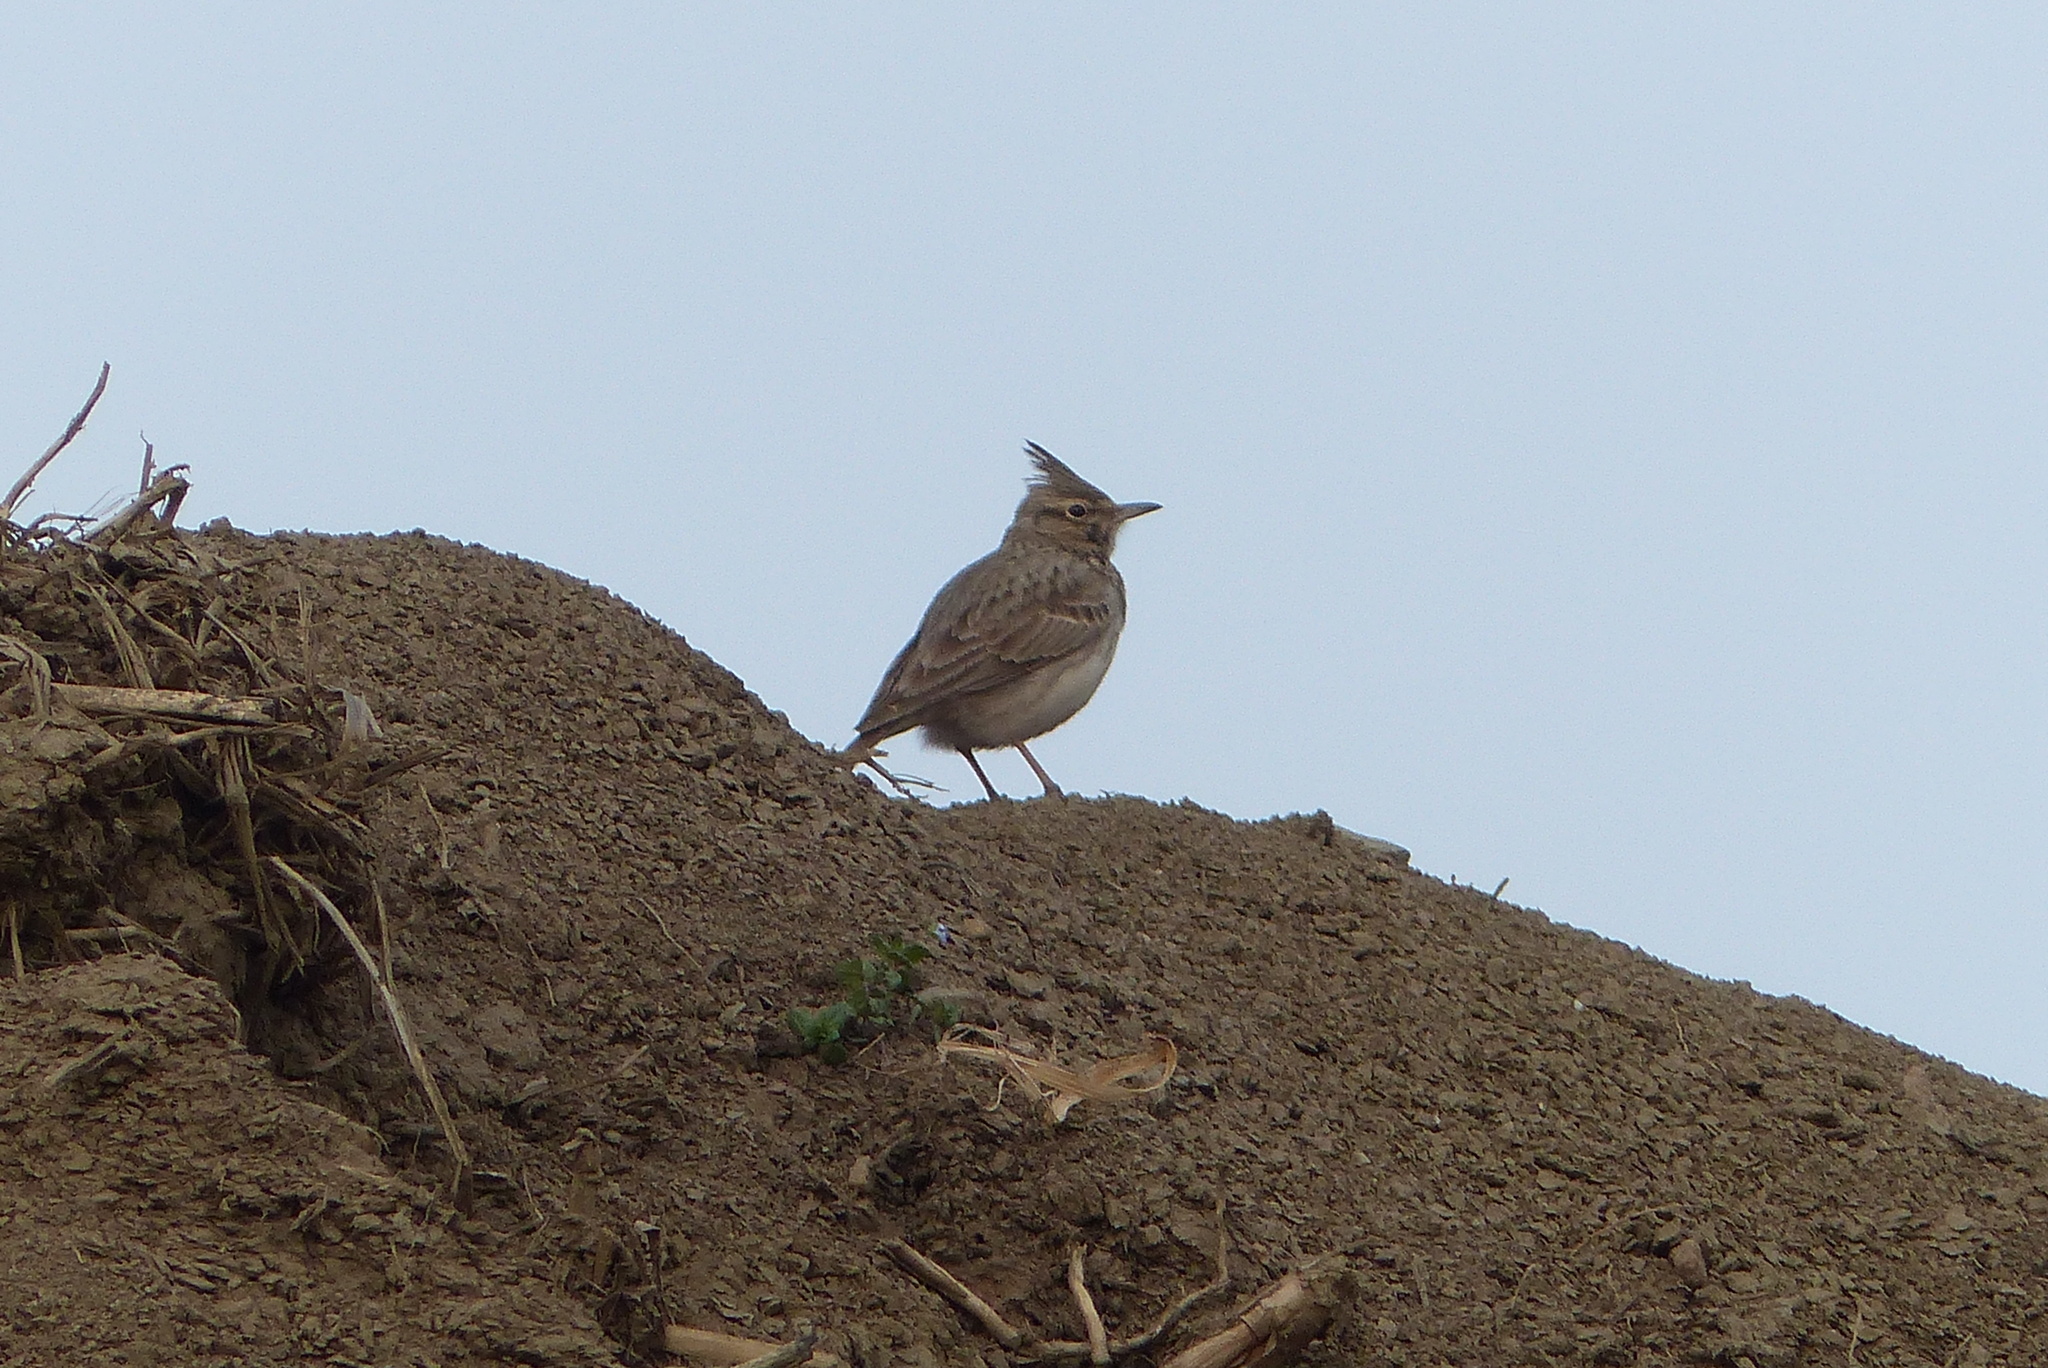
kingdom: Animalia
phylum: Chordata
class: Aves
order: Passeriformes
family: Alaudidae
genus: Galerida
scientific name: Galerida cristata
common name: Crested lark
